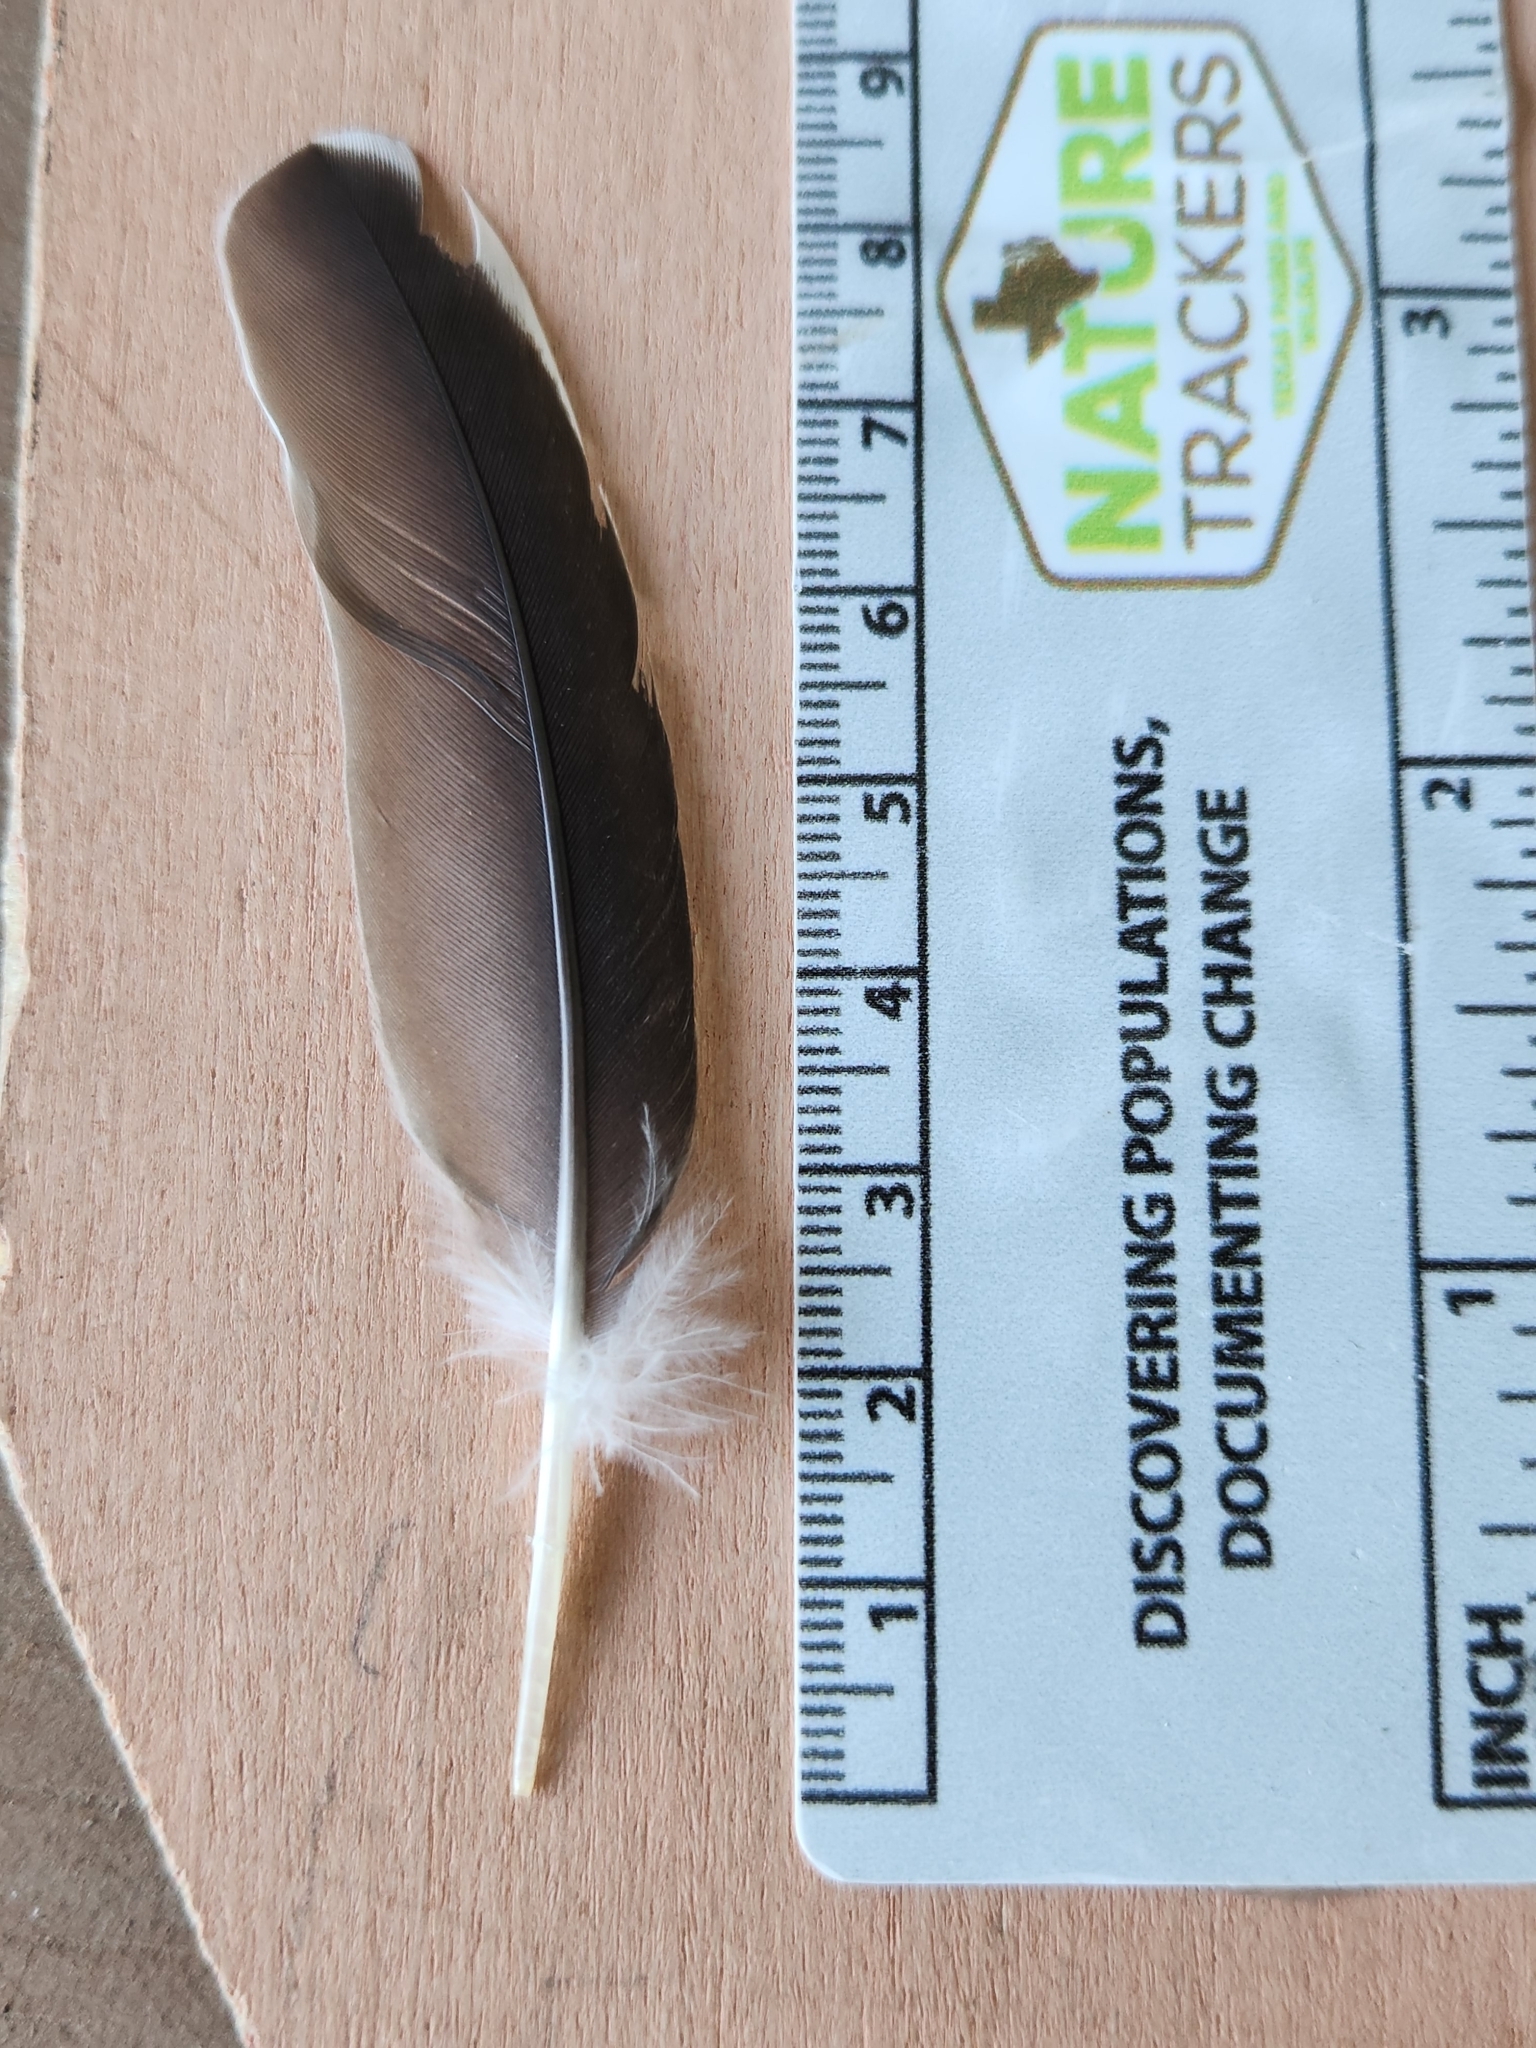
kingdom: Animalia
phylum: Chordata
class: Aves
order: Columbiformes
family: Columbidae
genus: Zenaida
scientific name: Zenaida asiatica
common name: White-winged dove
